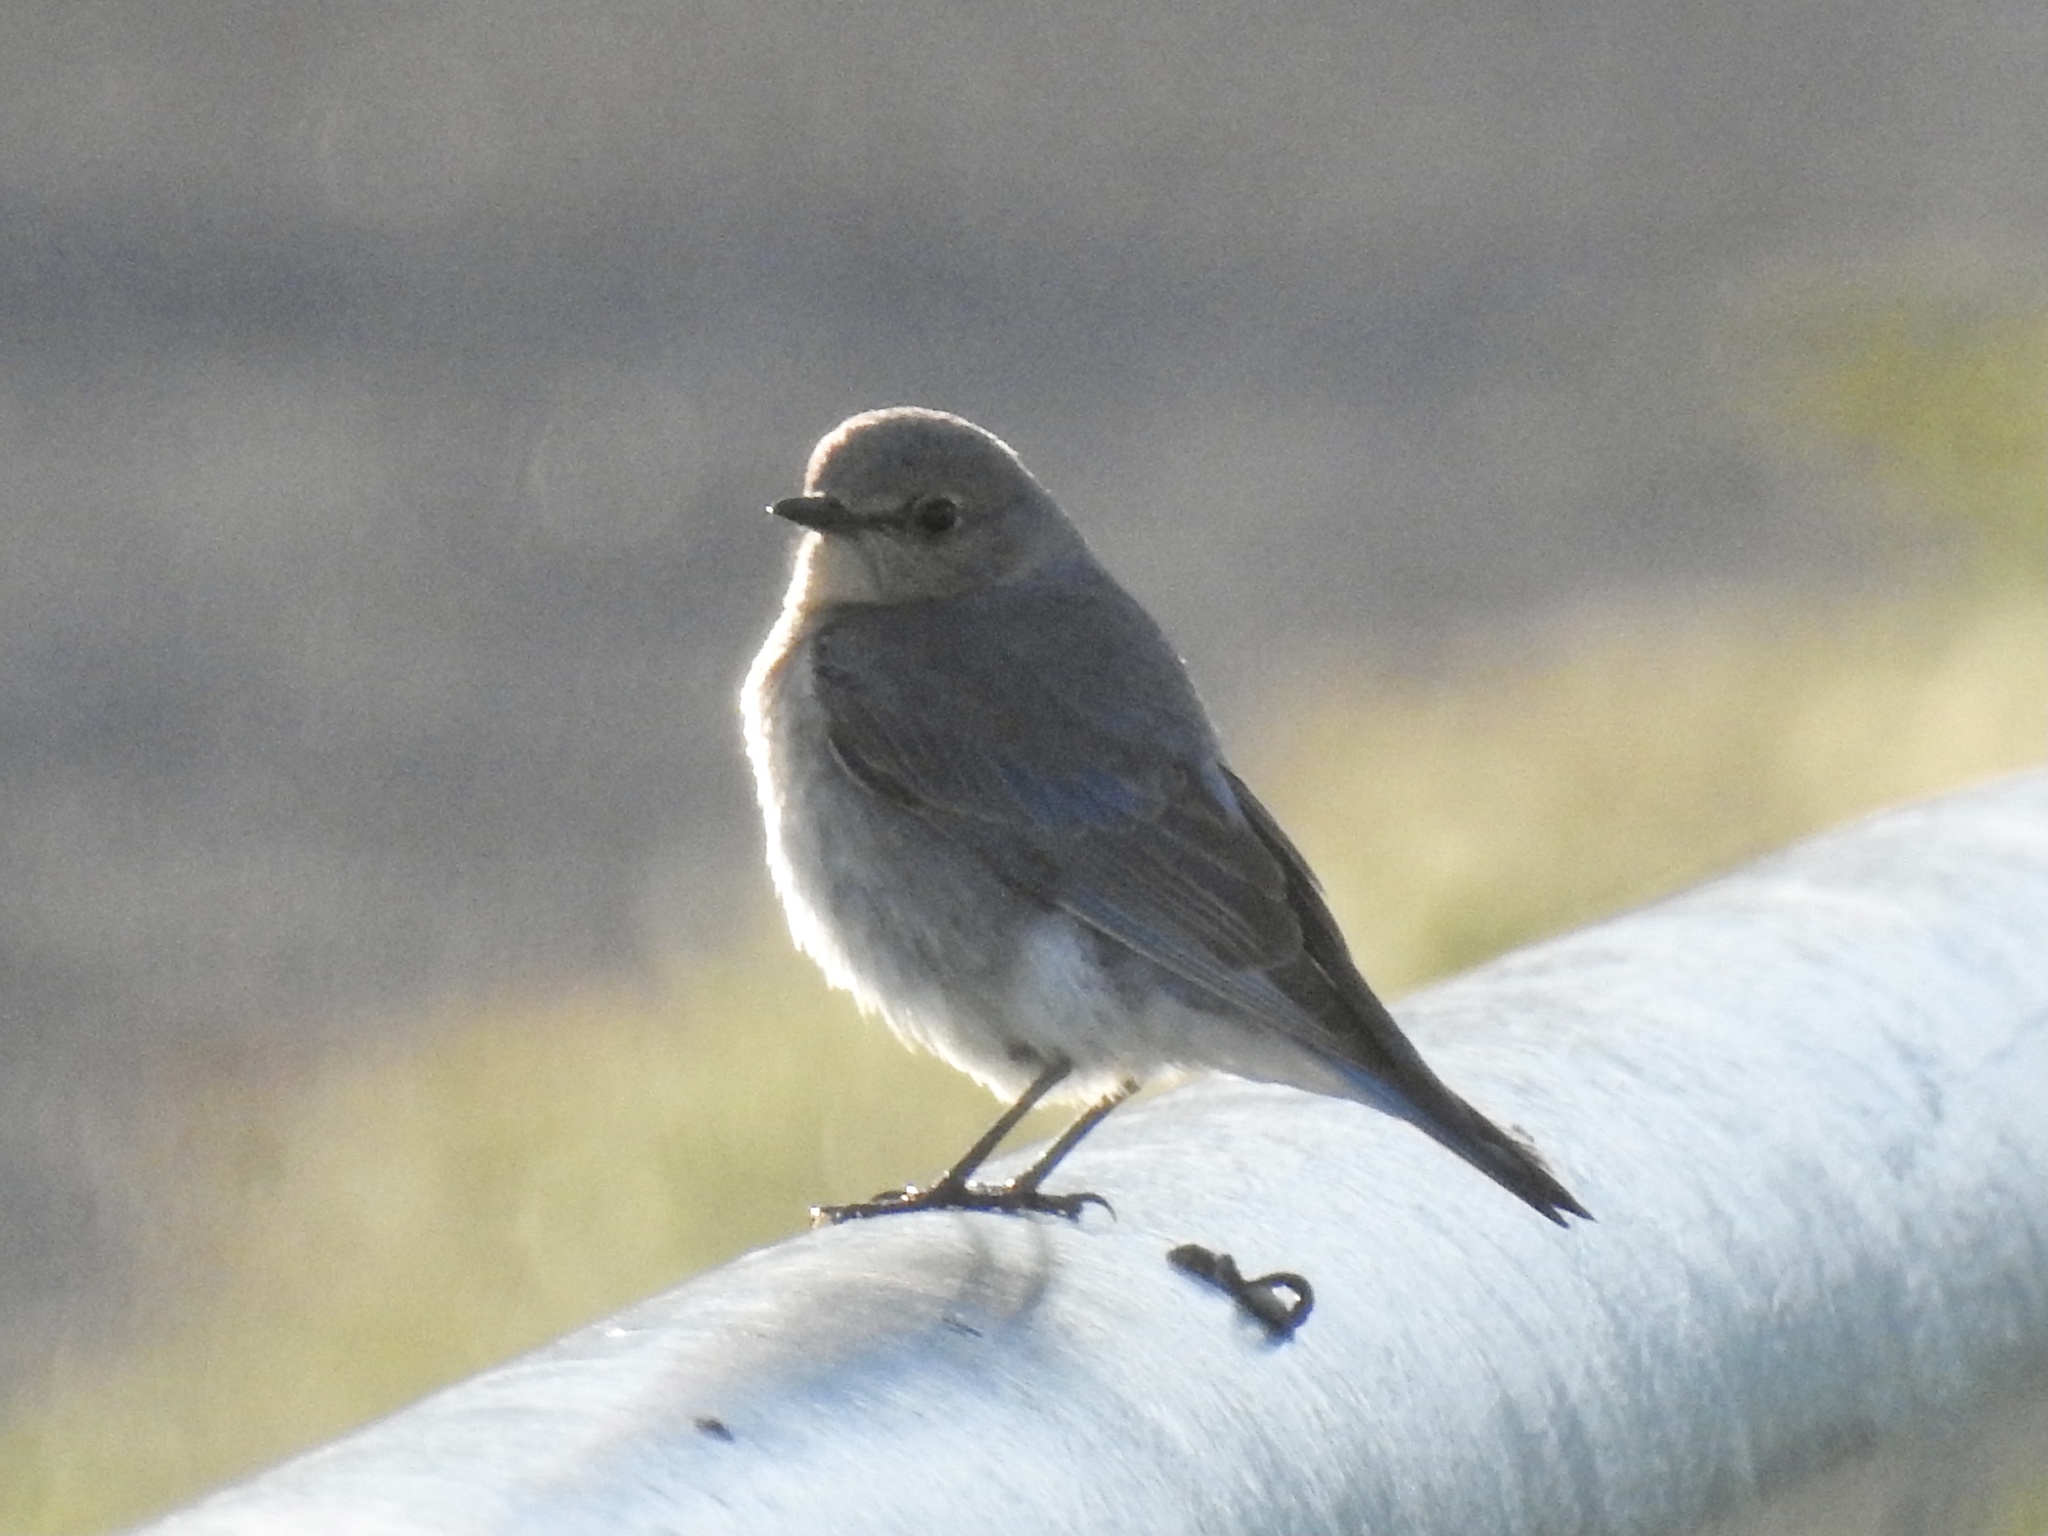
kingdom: Animalia
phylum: Chordata
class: Aves
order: Passeriformes
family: Turdidae
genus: Sialia
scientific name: Sialia currucoides
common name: Mountain bluebird
